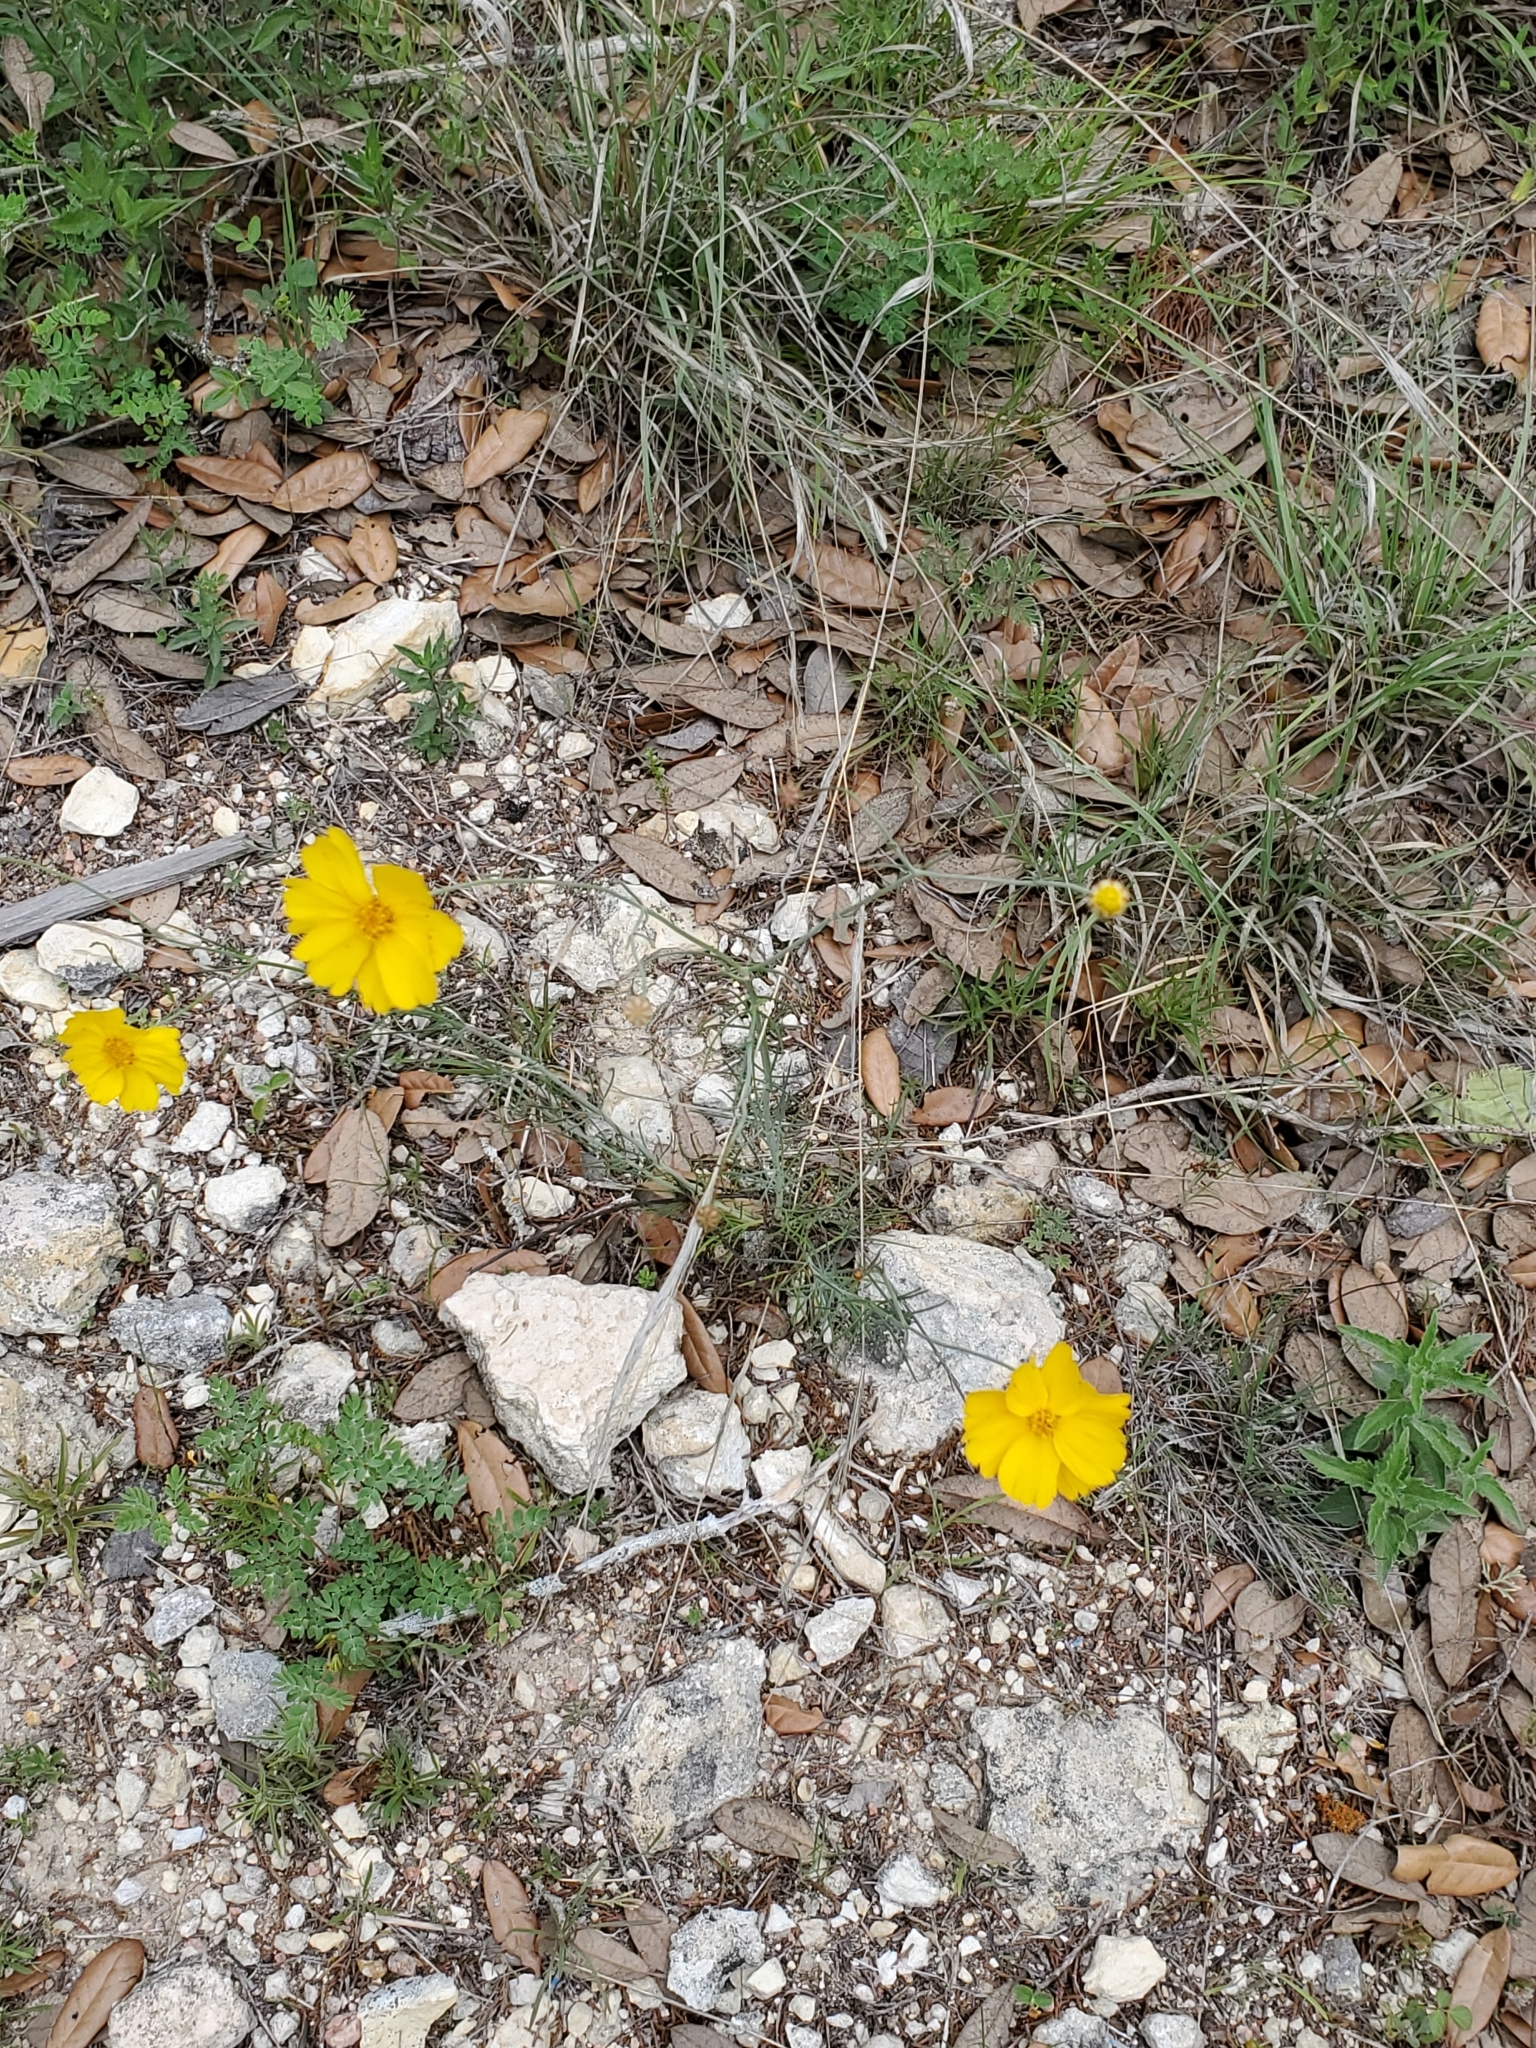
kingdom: Plantae
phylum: Tracheophyta
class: Magnoliopsida
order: Asterales
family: Asteraceae
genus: Thelesperma
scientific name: Thelesperma simplicifolium
